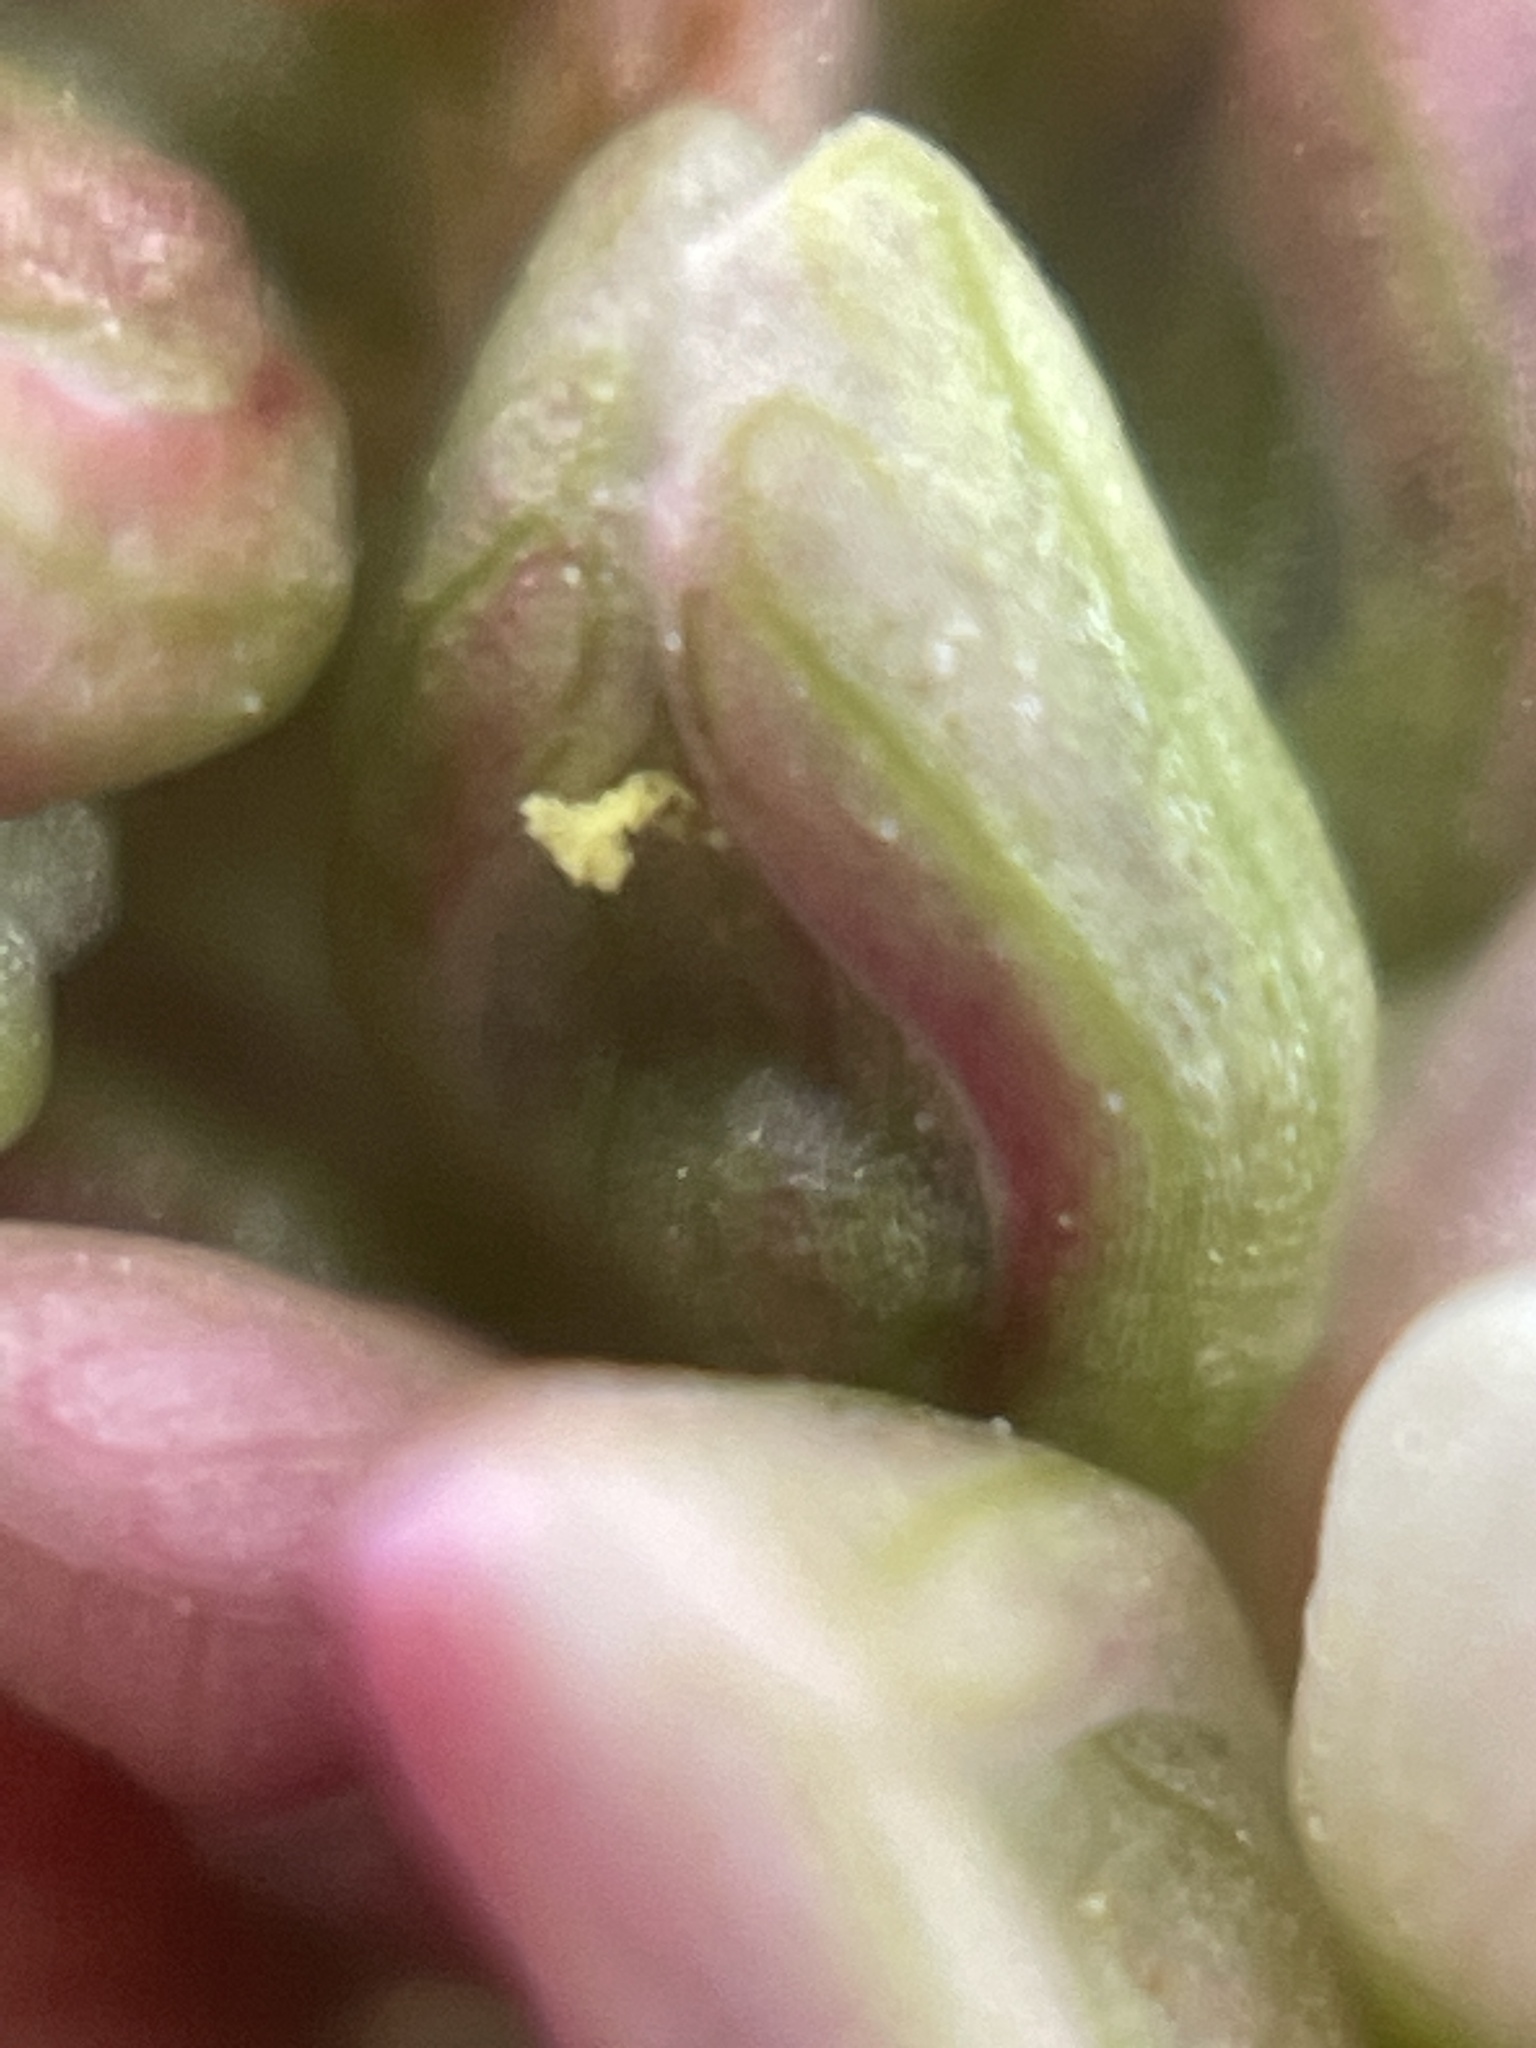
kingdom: Plantae
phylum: Tracheophyta
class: Magnoliopsida
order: Caryophyllales
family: Polygonaceae
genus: Persicaria
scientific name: Persicaria lapathifolia
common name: Curlytop knotweed
